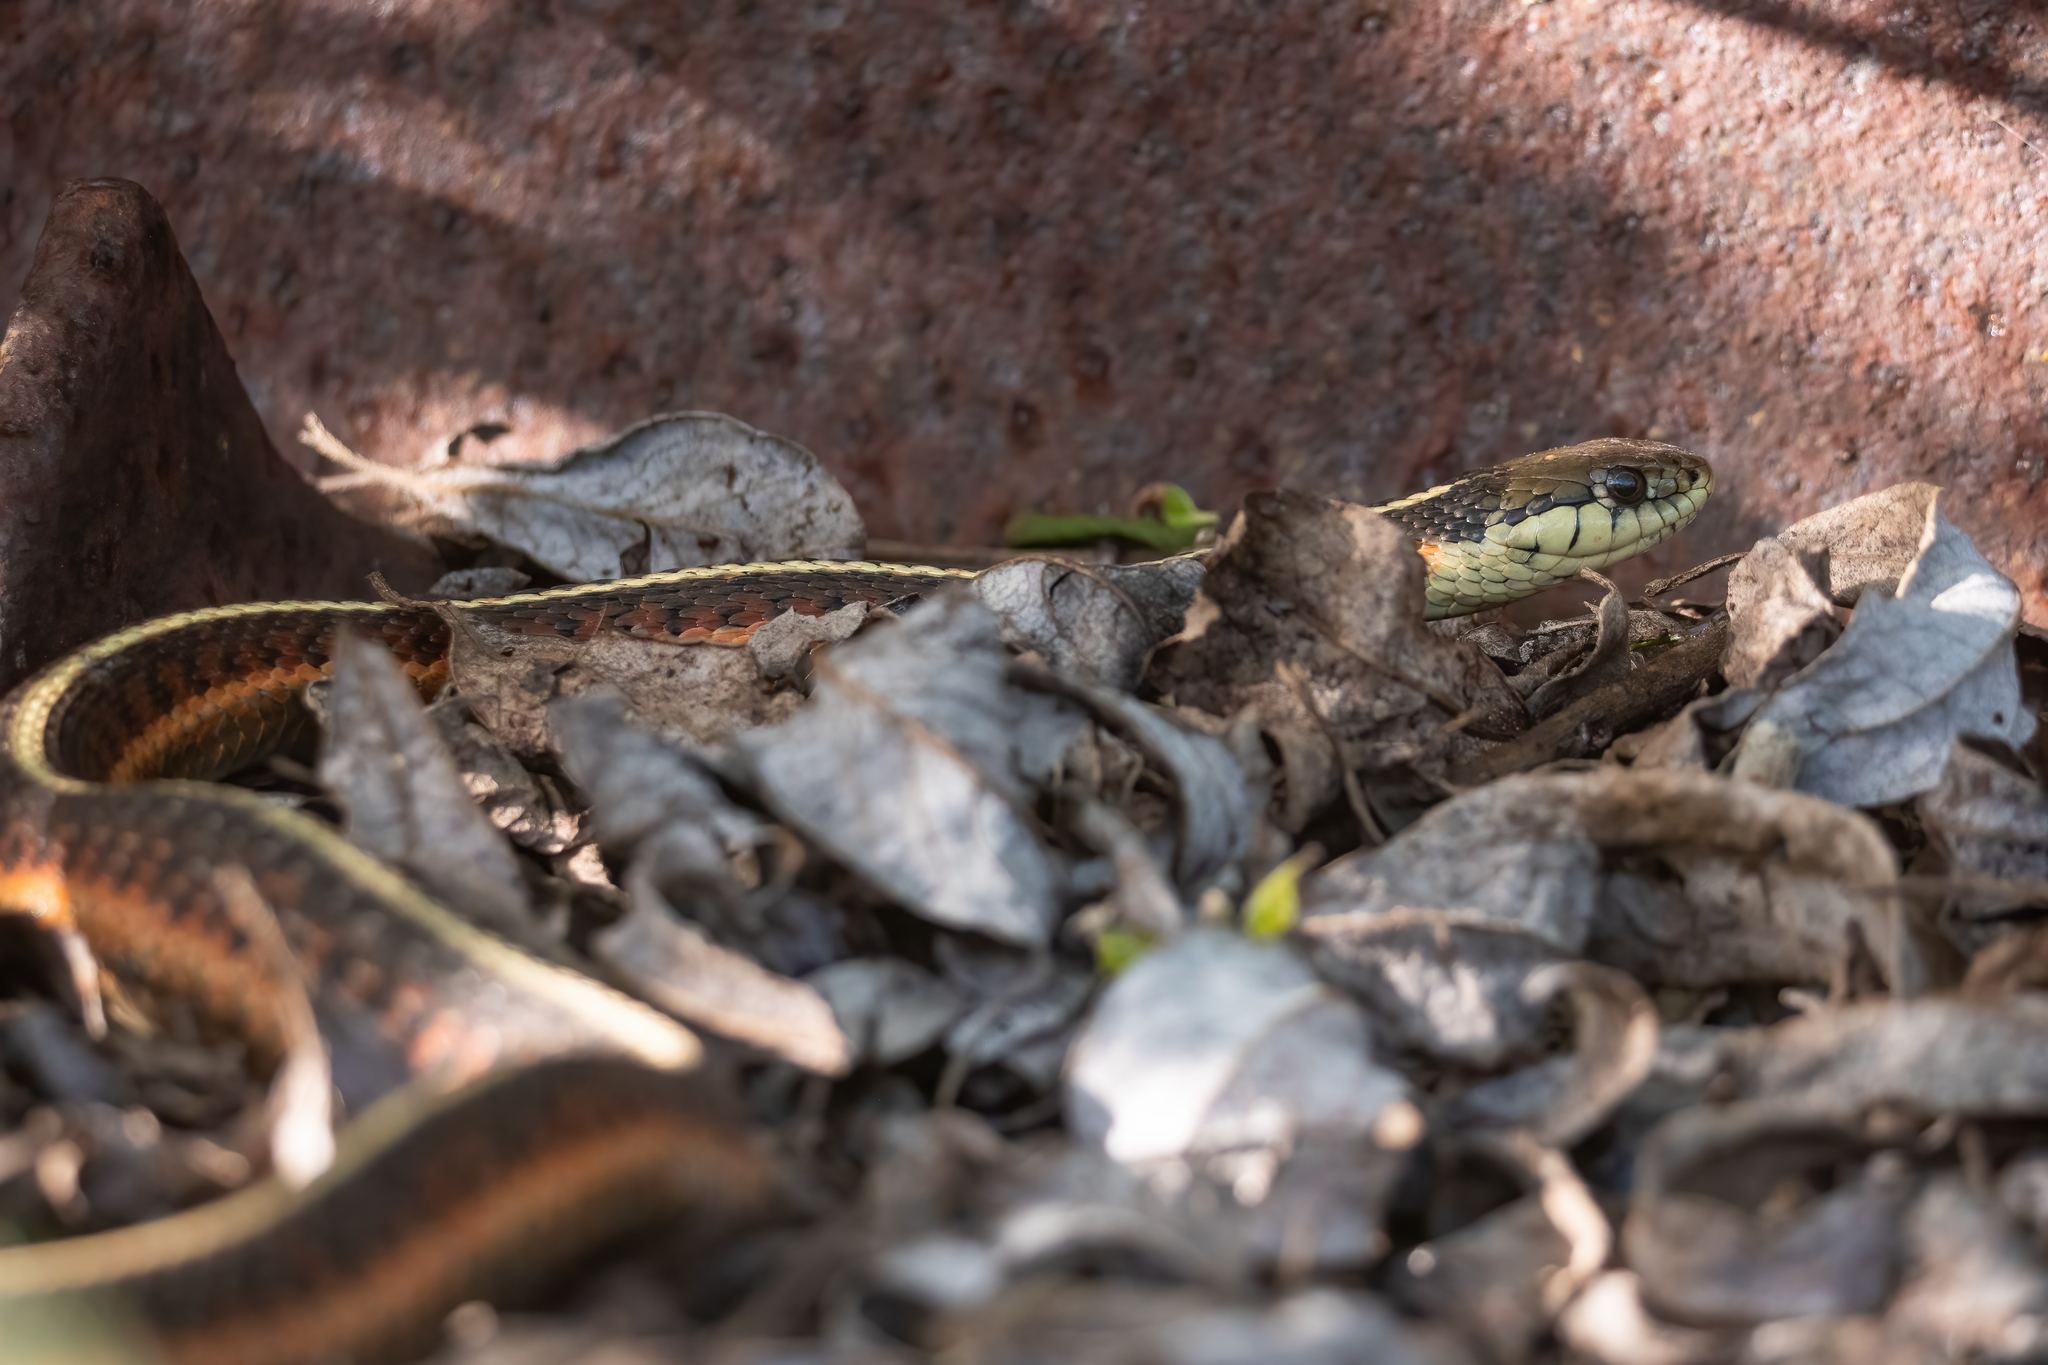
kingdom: Animalia
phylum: Chordata
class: Squamata
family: Colubridae
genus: Thamnophis
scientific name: Thamnophis elegans
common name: Western terrestrial garter snake
